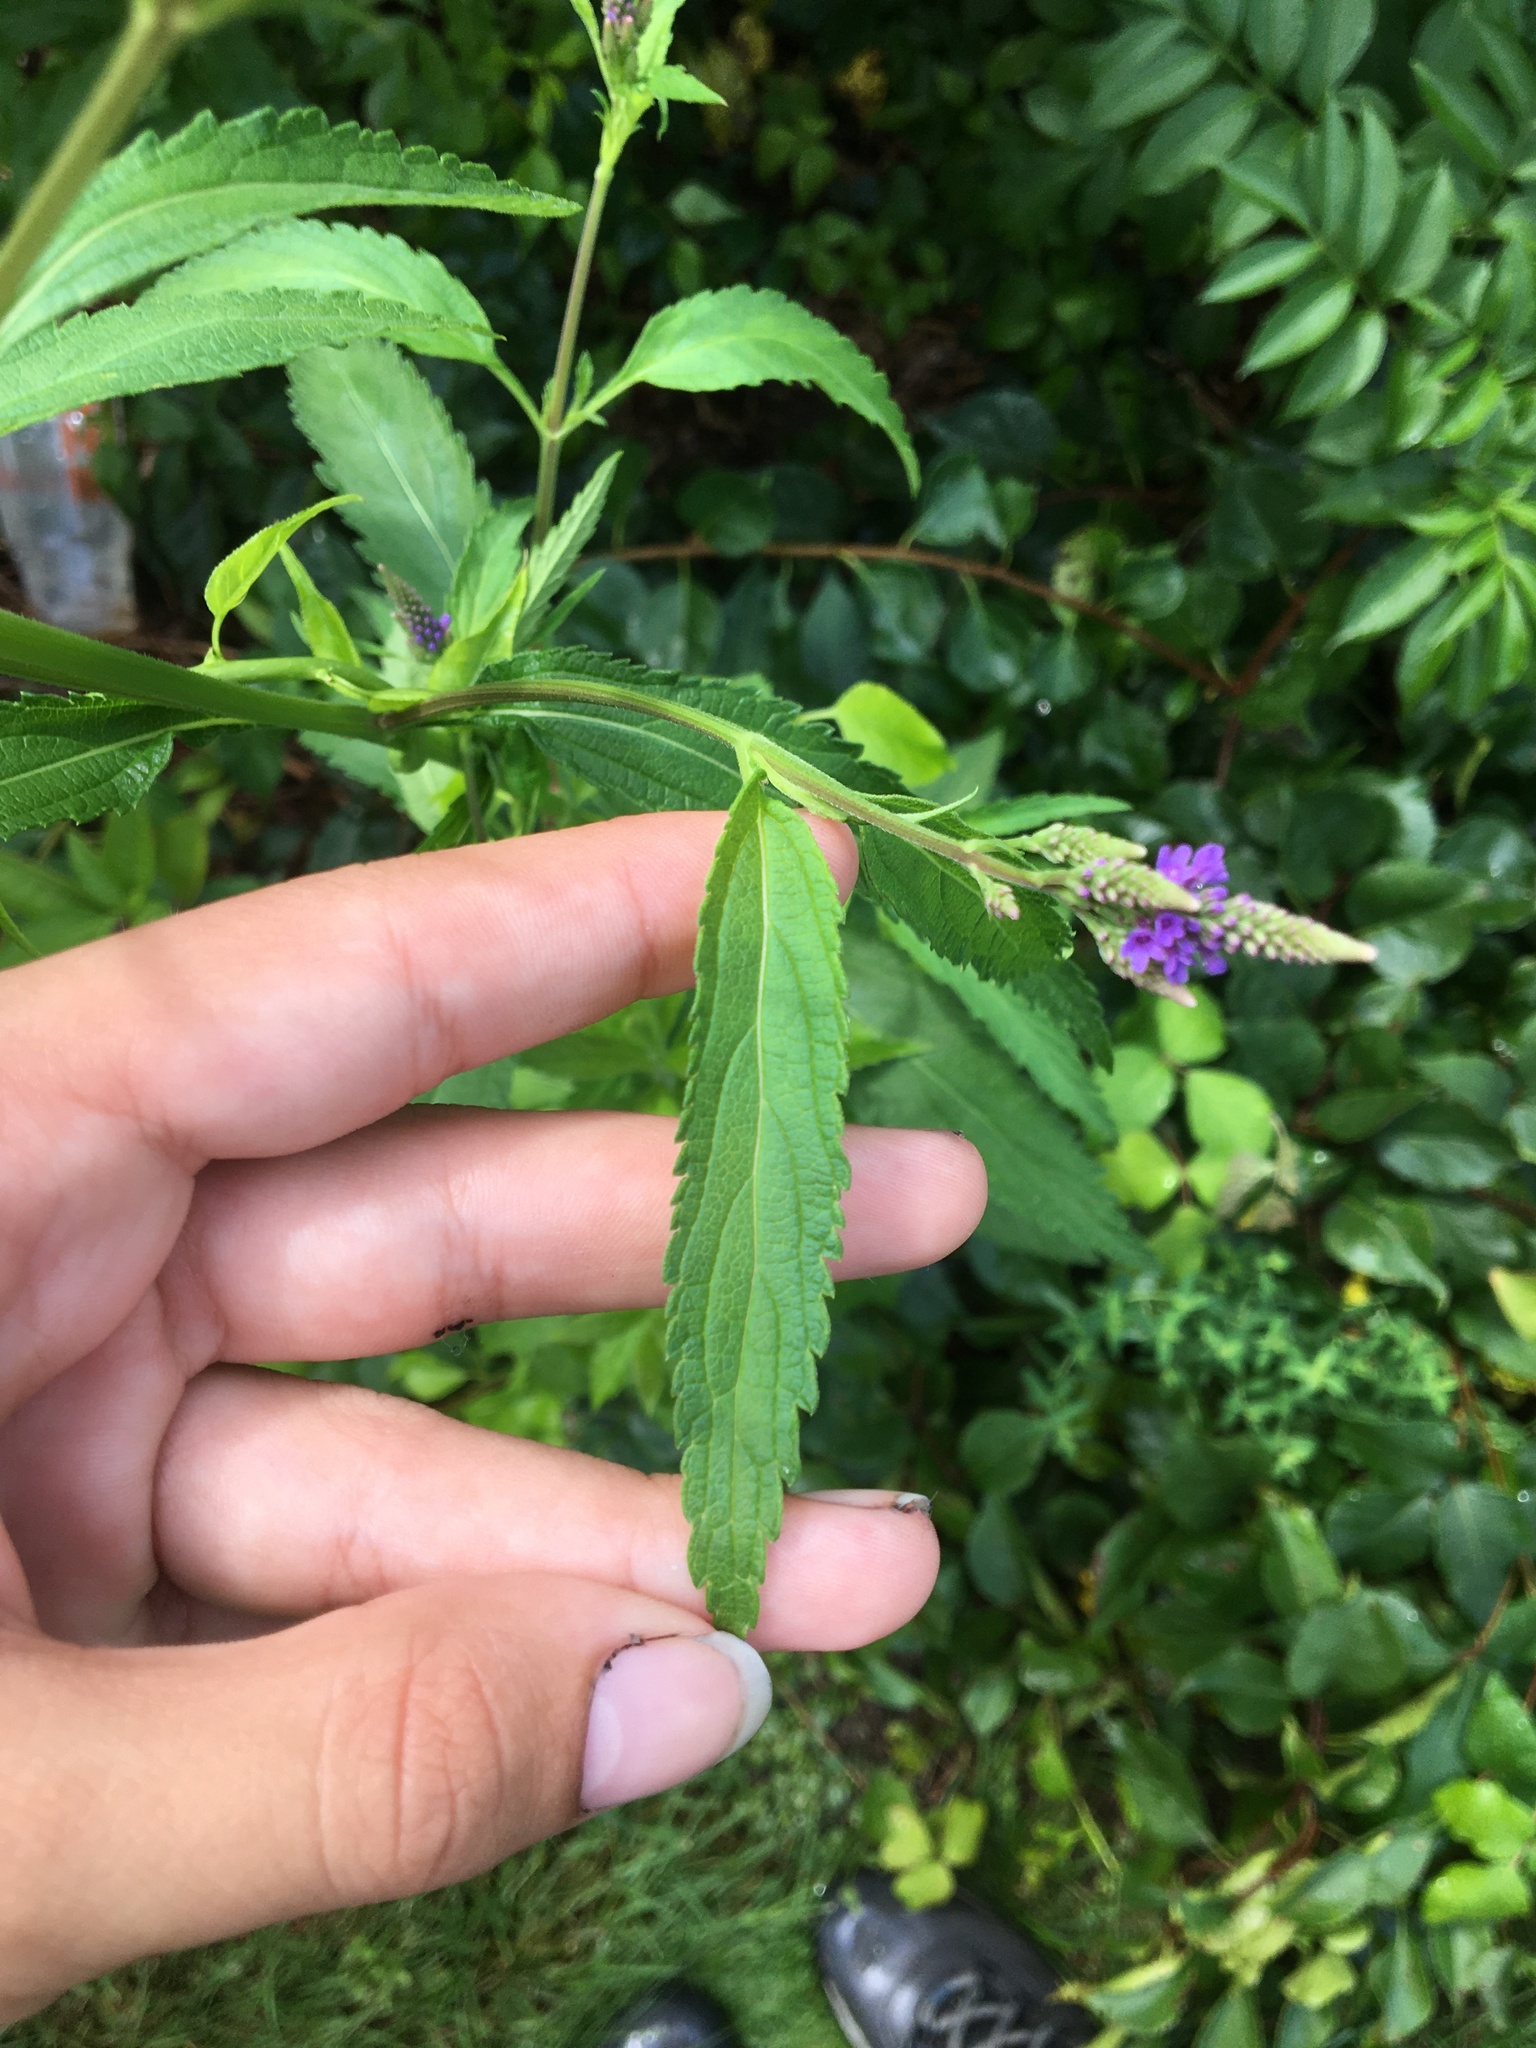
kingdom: Plantae
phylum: Tracheophyta
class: Magnoliopsida
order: Lamiales
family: Verbenaceae
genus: Verbena
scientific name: Verbena hastata
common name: American blue vervain
